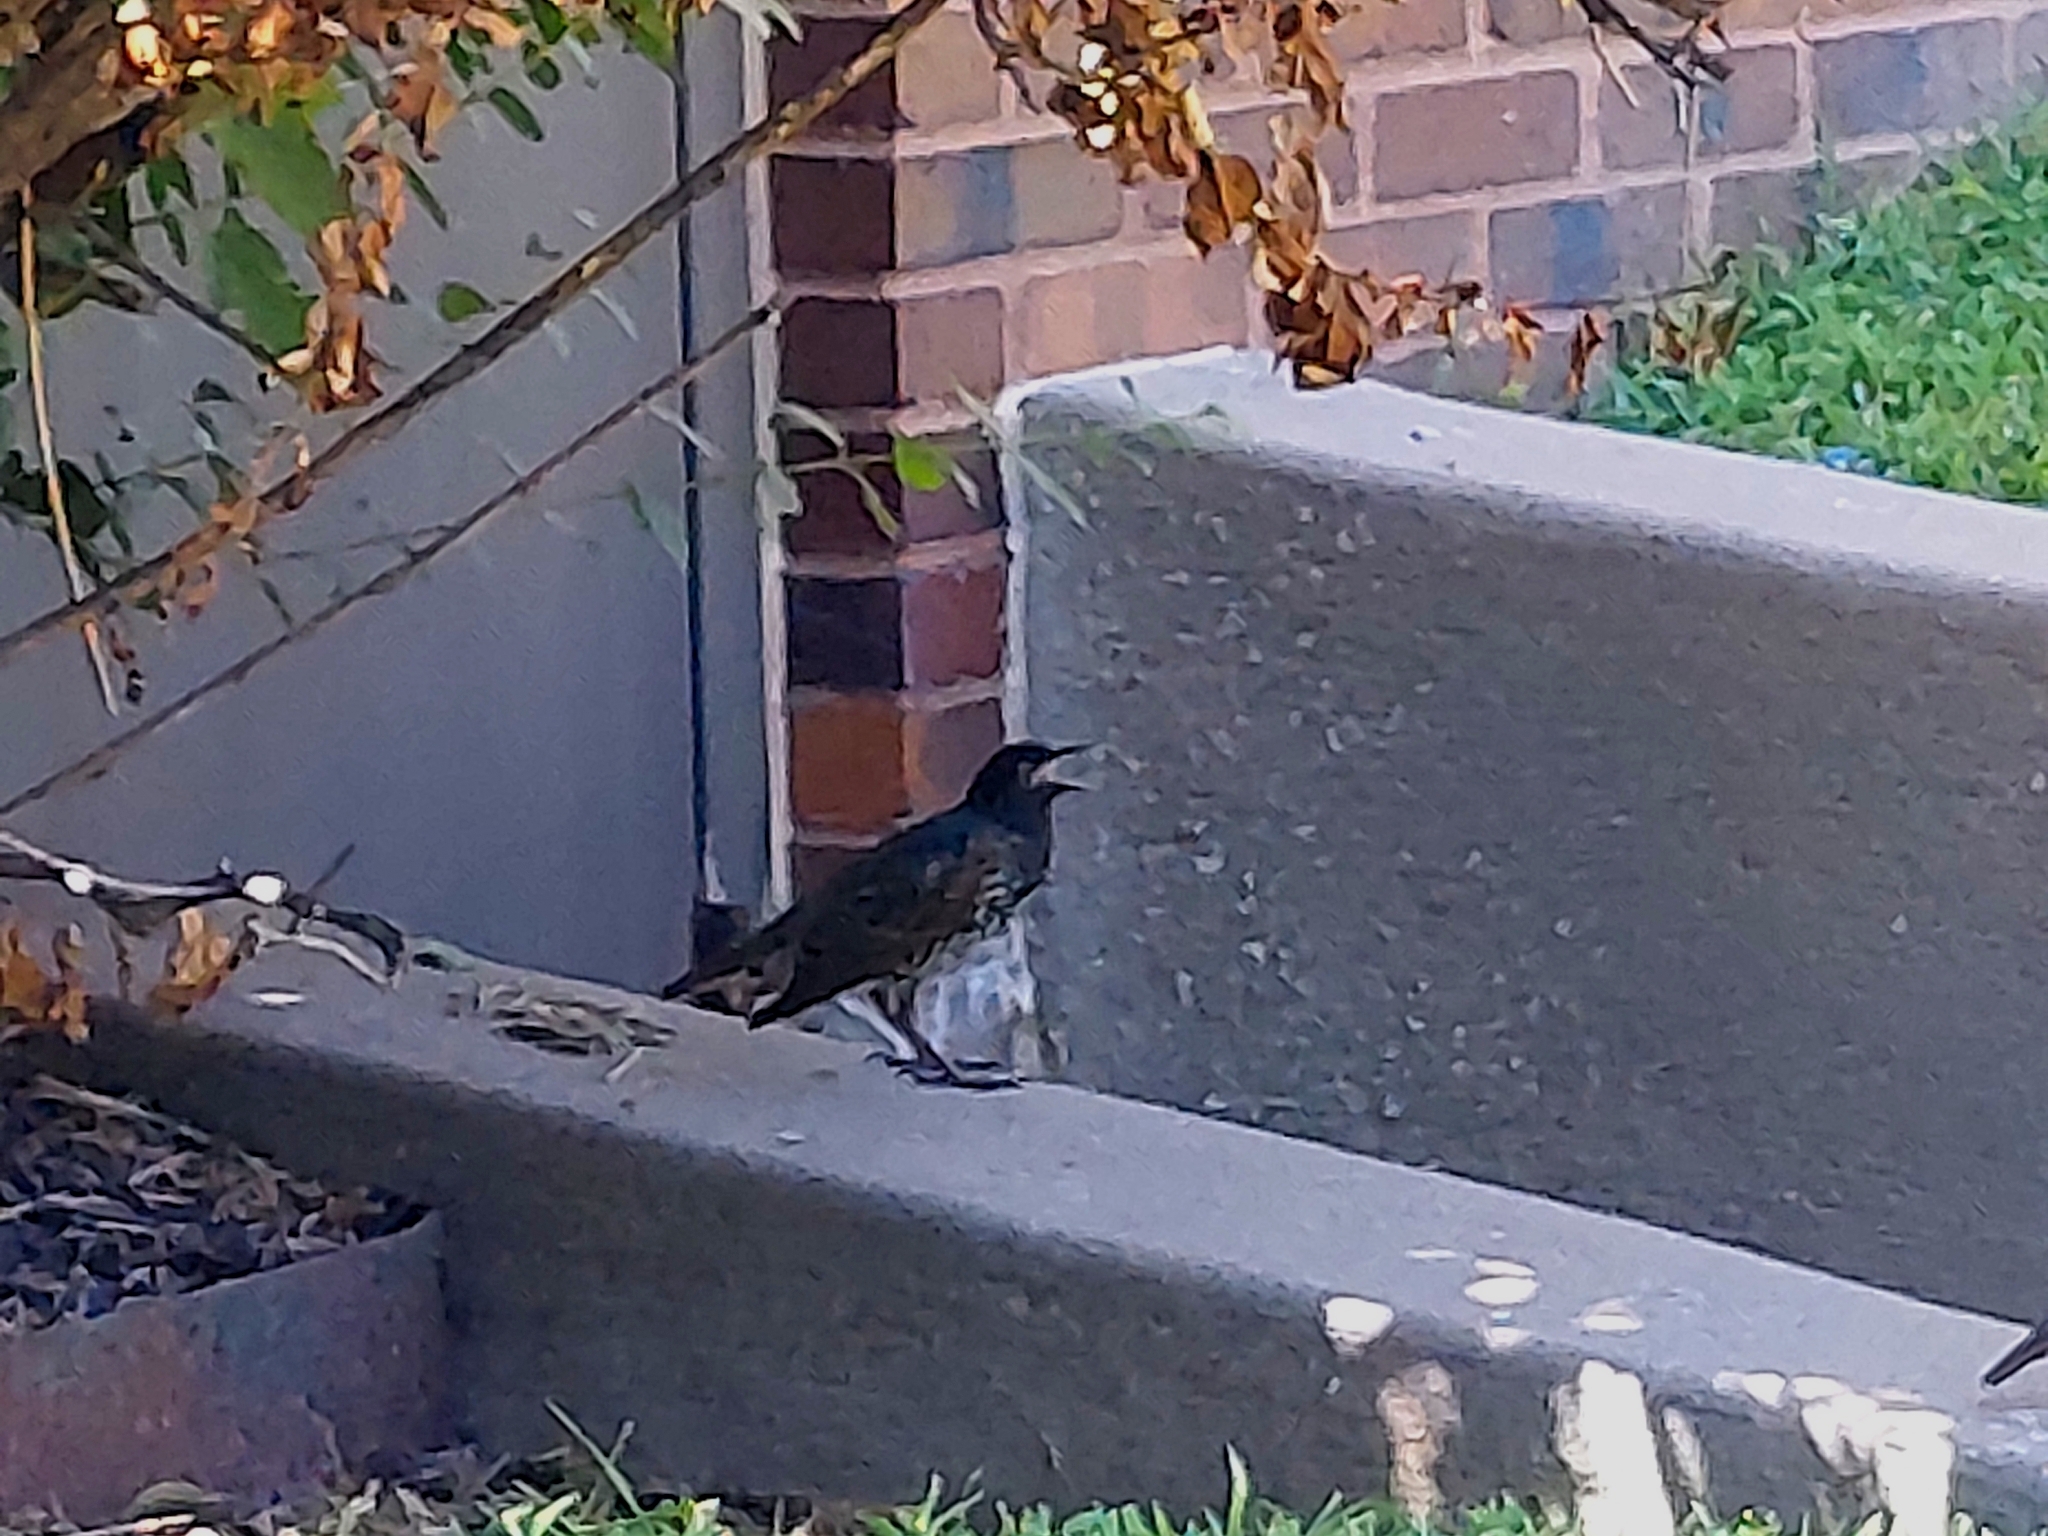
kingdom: Animalia
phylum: Chordata
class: Aves
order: Passeriformes
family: Sturnidae
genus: Sturnus
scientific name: Sturnus vulgaris
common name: Common starling
